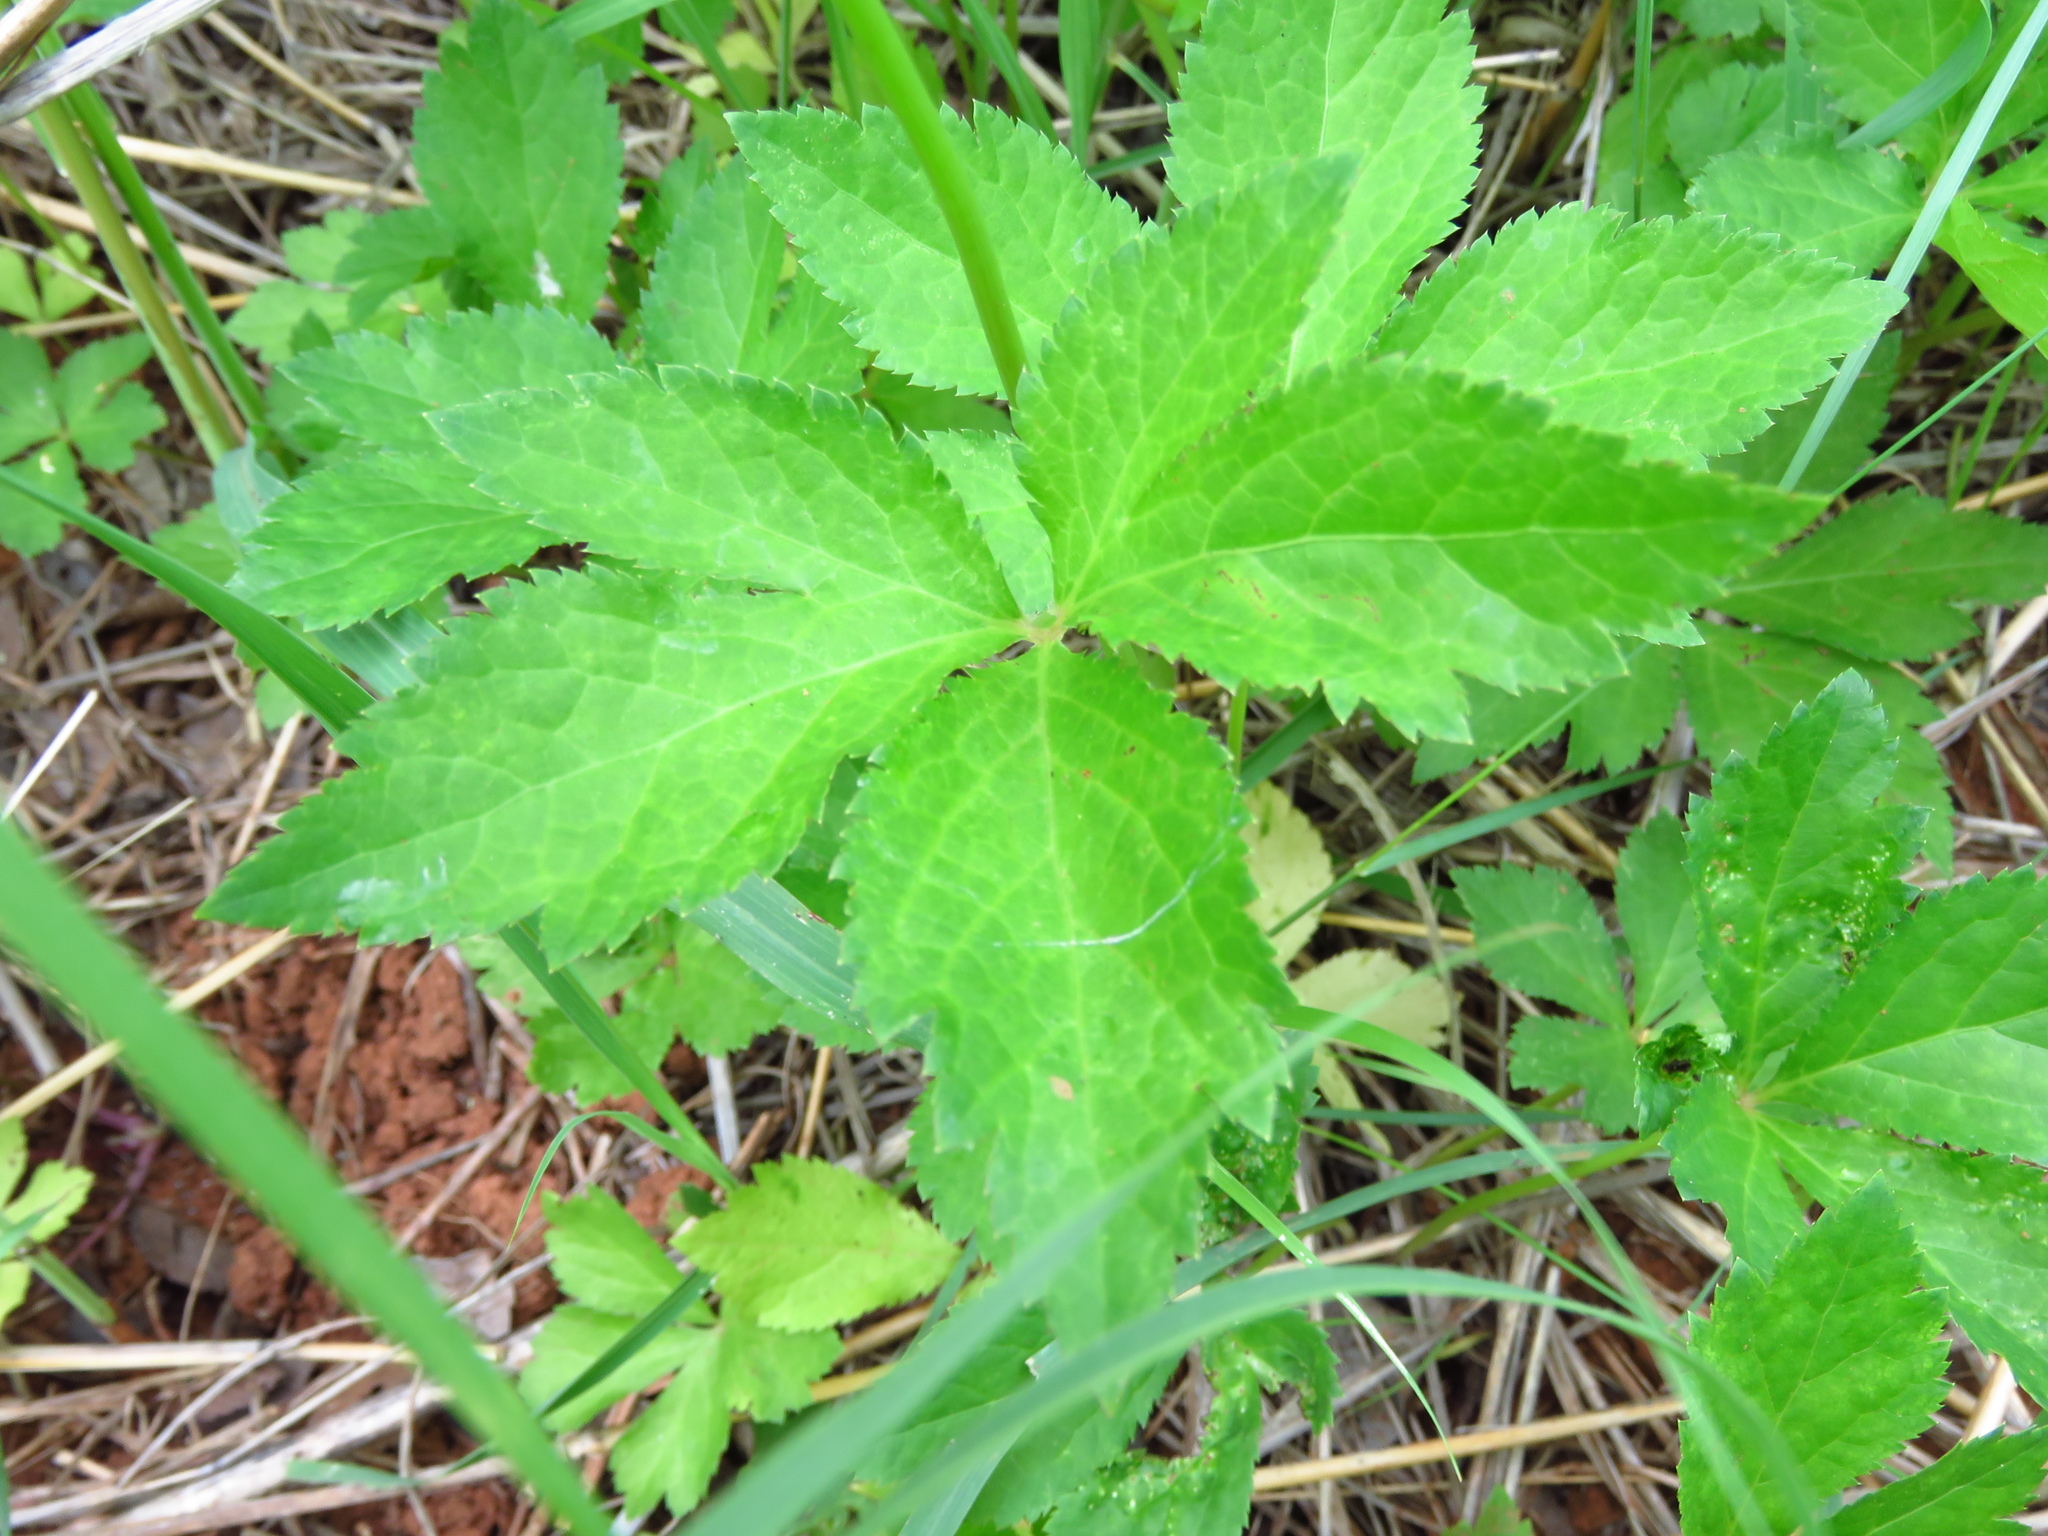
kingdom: Plantae
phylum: Tracheophyta
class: Magnoliopsida
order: Apiales
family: Apiaceae
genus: Sanicula
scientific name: Sanicula canadensis
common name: Canada sanicle
